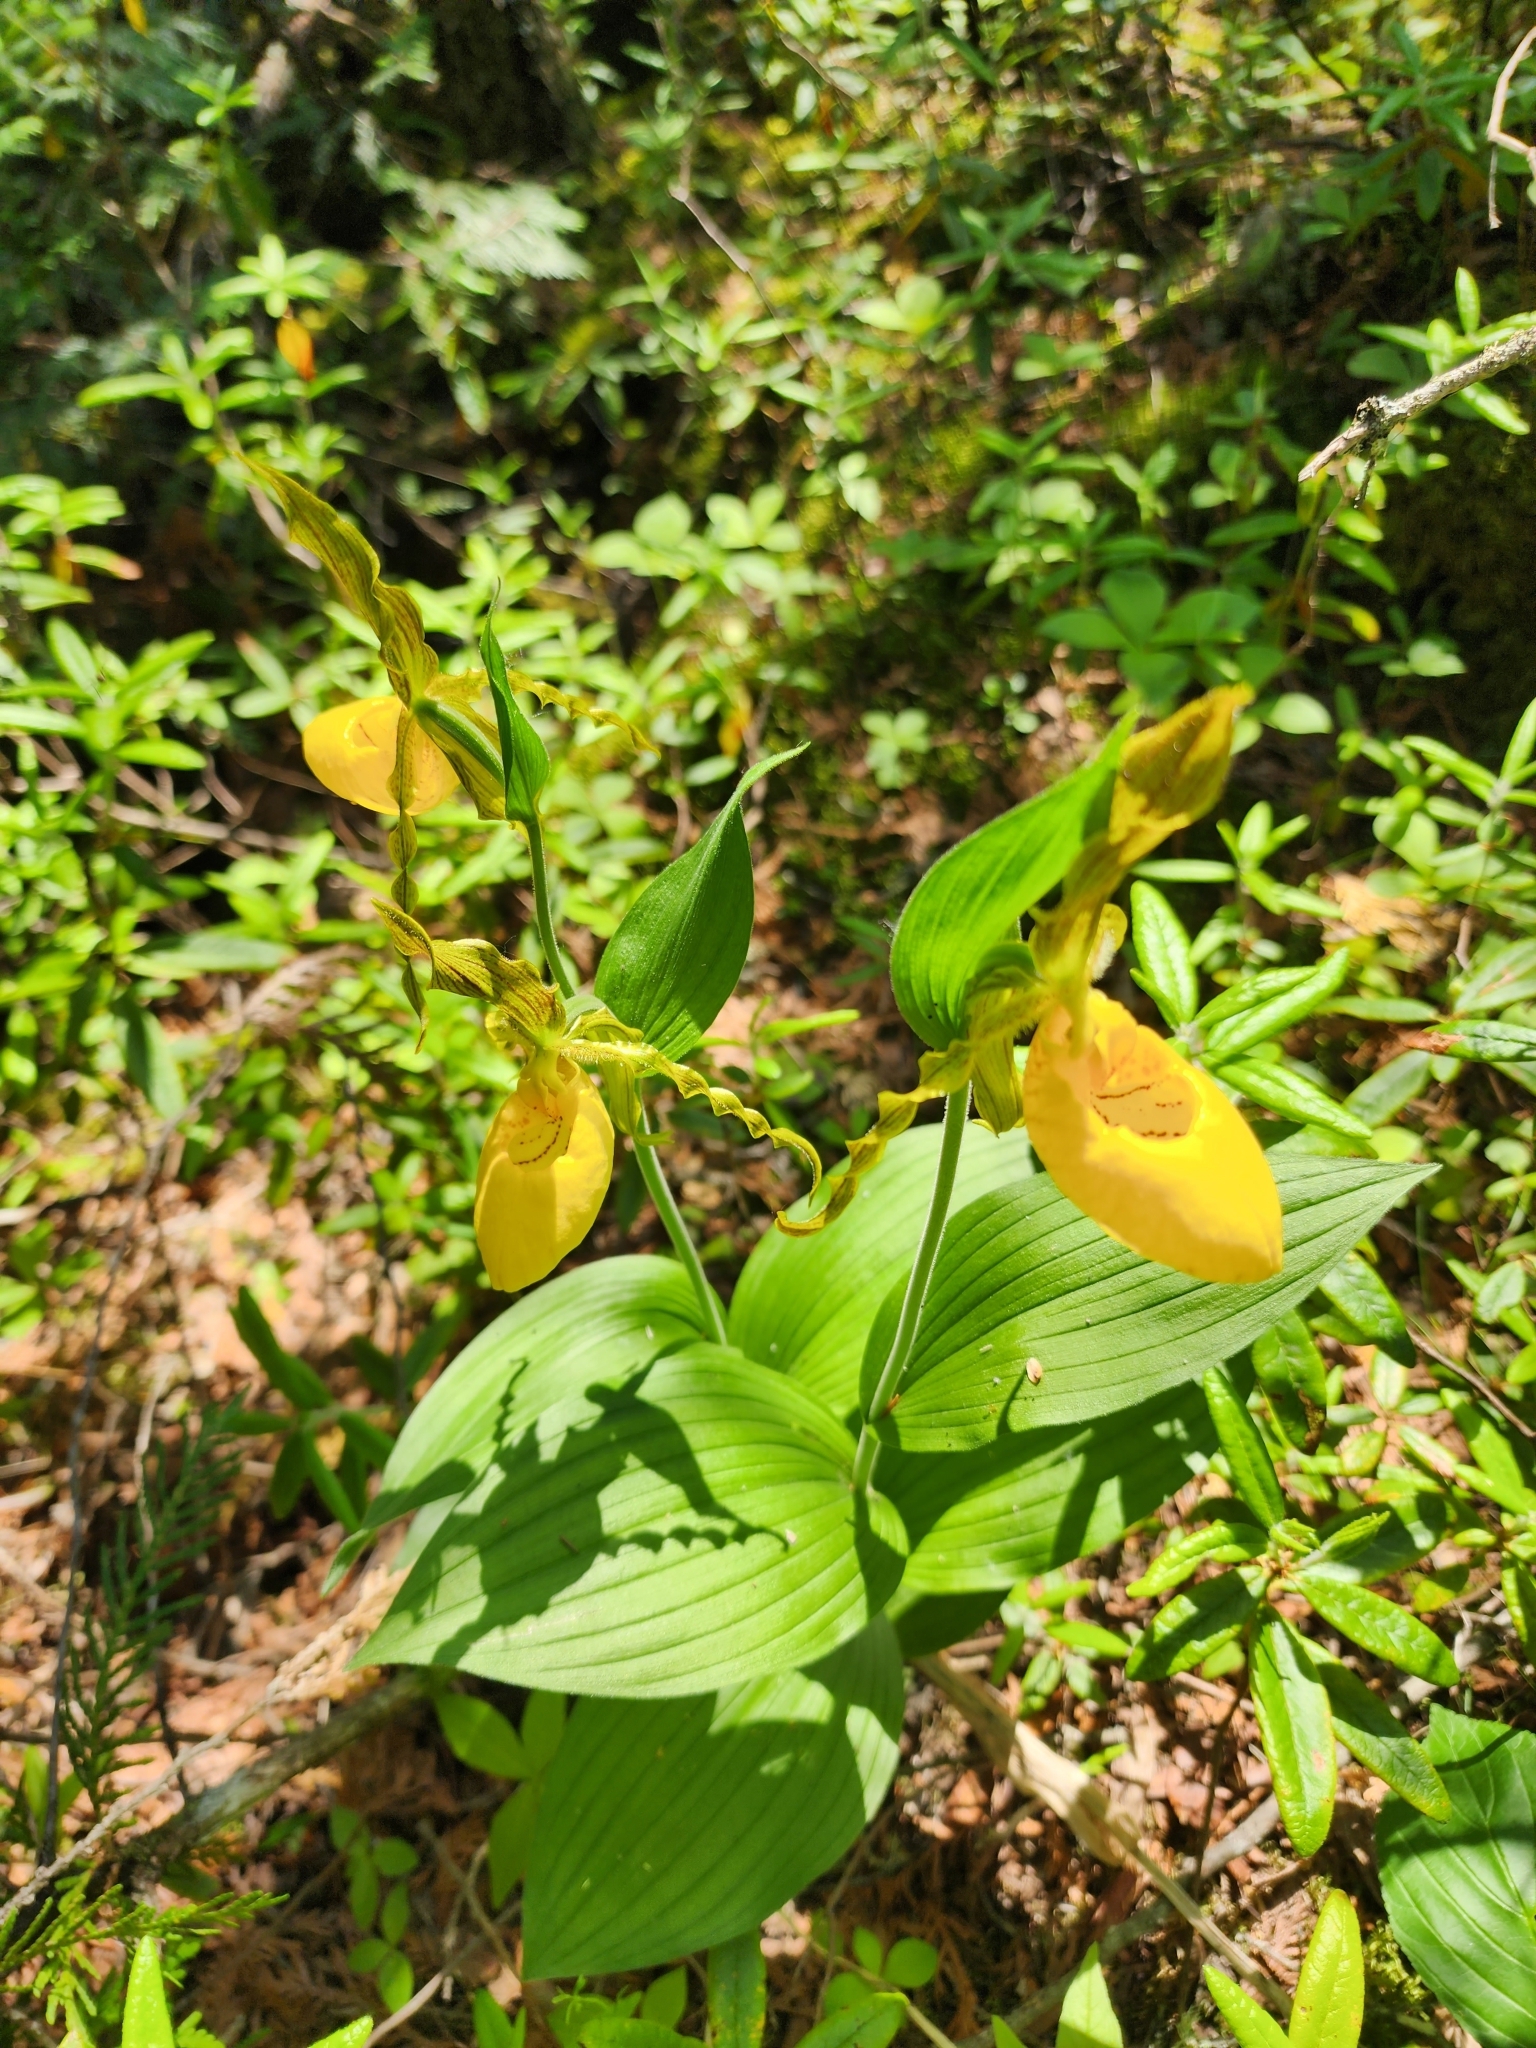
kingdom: Plantae
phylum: Tracheophyta
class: Liliopsida
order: Asparagales
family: Orchidaceae
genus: Cypripedium
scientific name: Cypripedium parviflorum
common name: American yellow lady's-slipper
